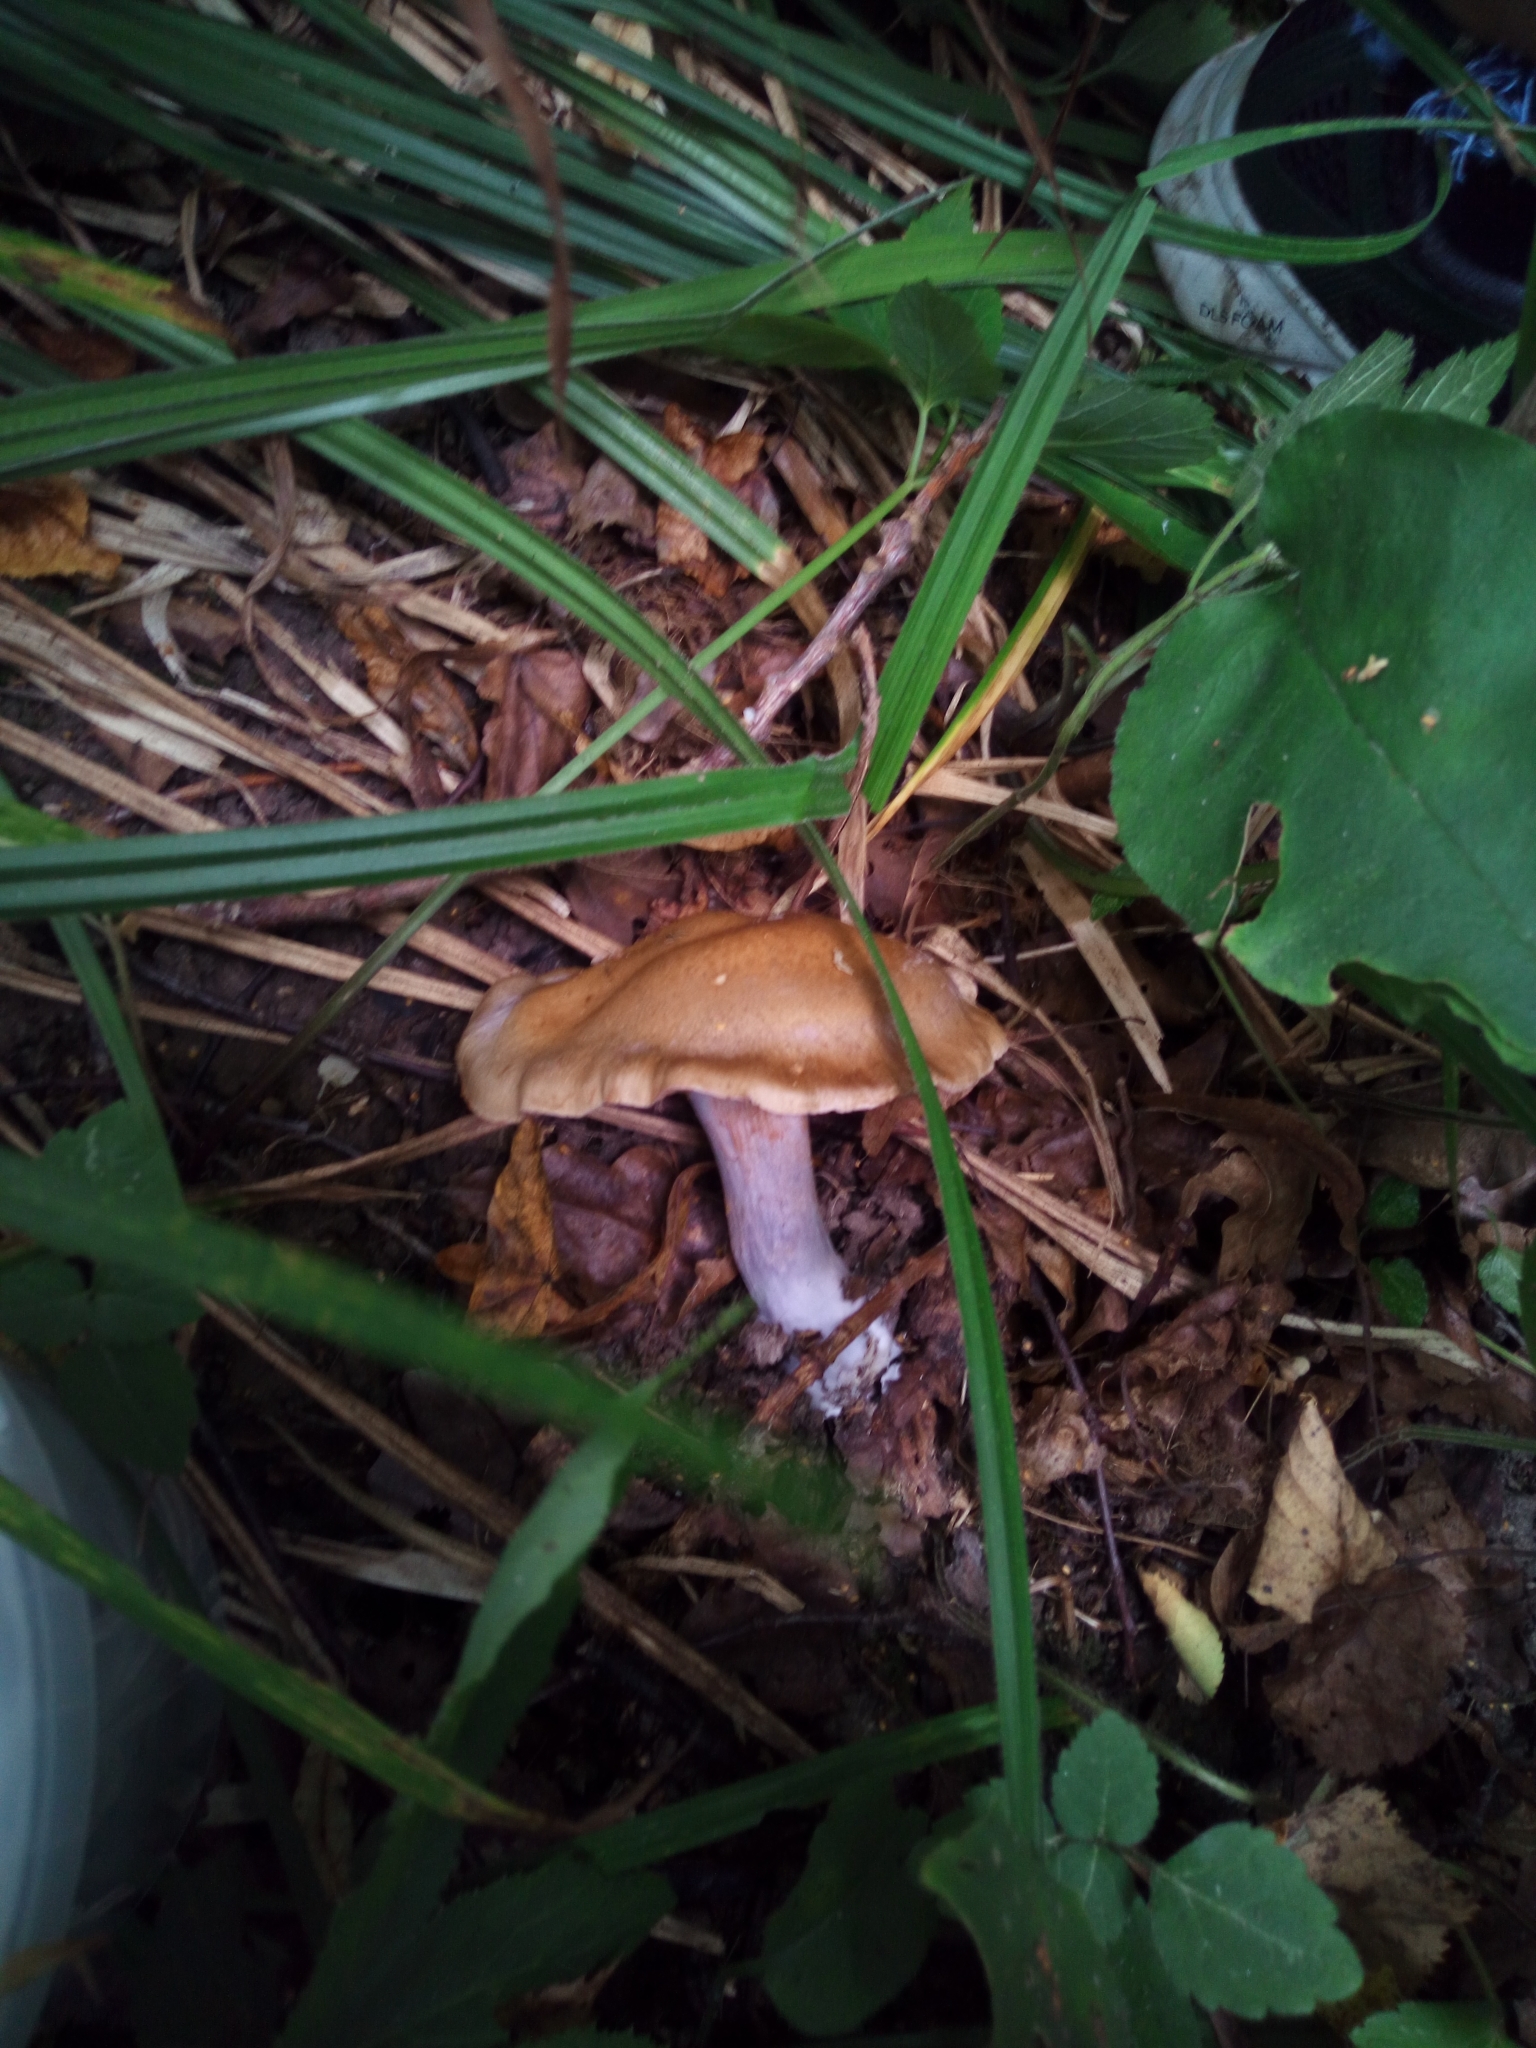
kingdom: Fungi
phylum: Basidiomycota
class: Agaricomycetes
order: Agaricales
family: Tricholomataceae
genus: Collybia
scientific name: Collybia
